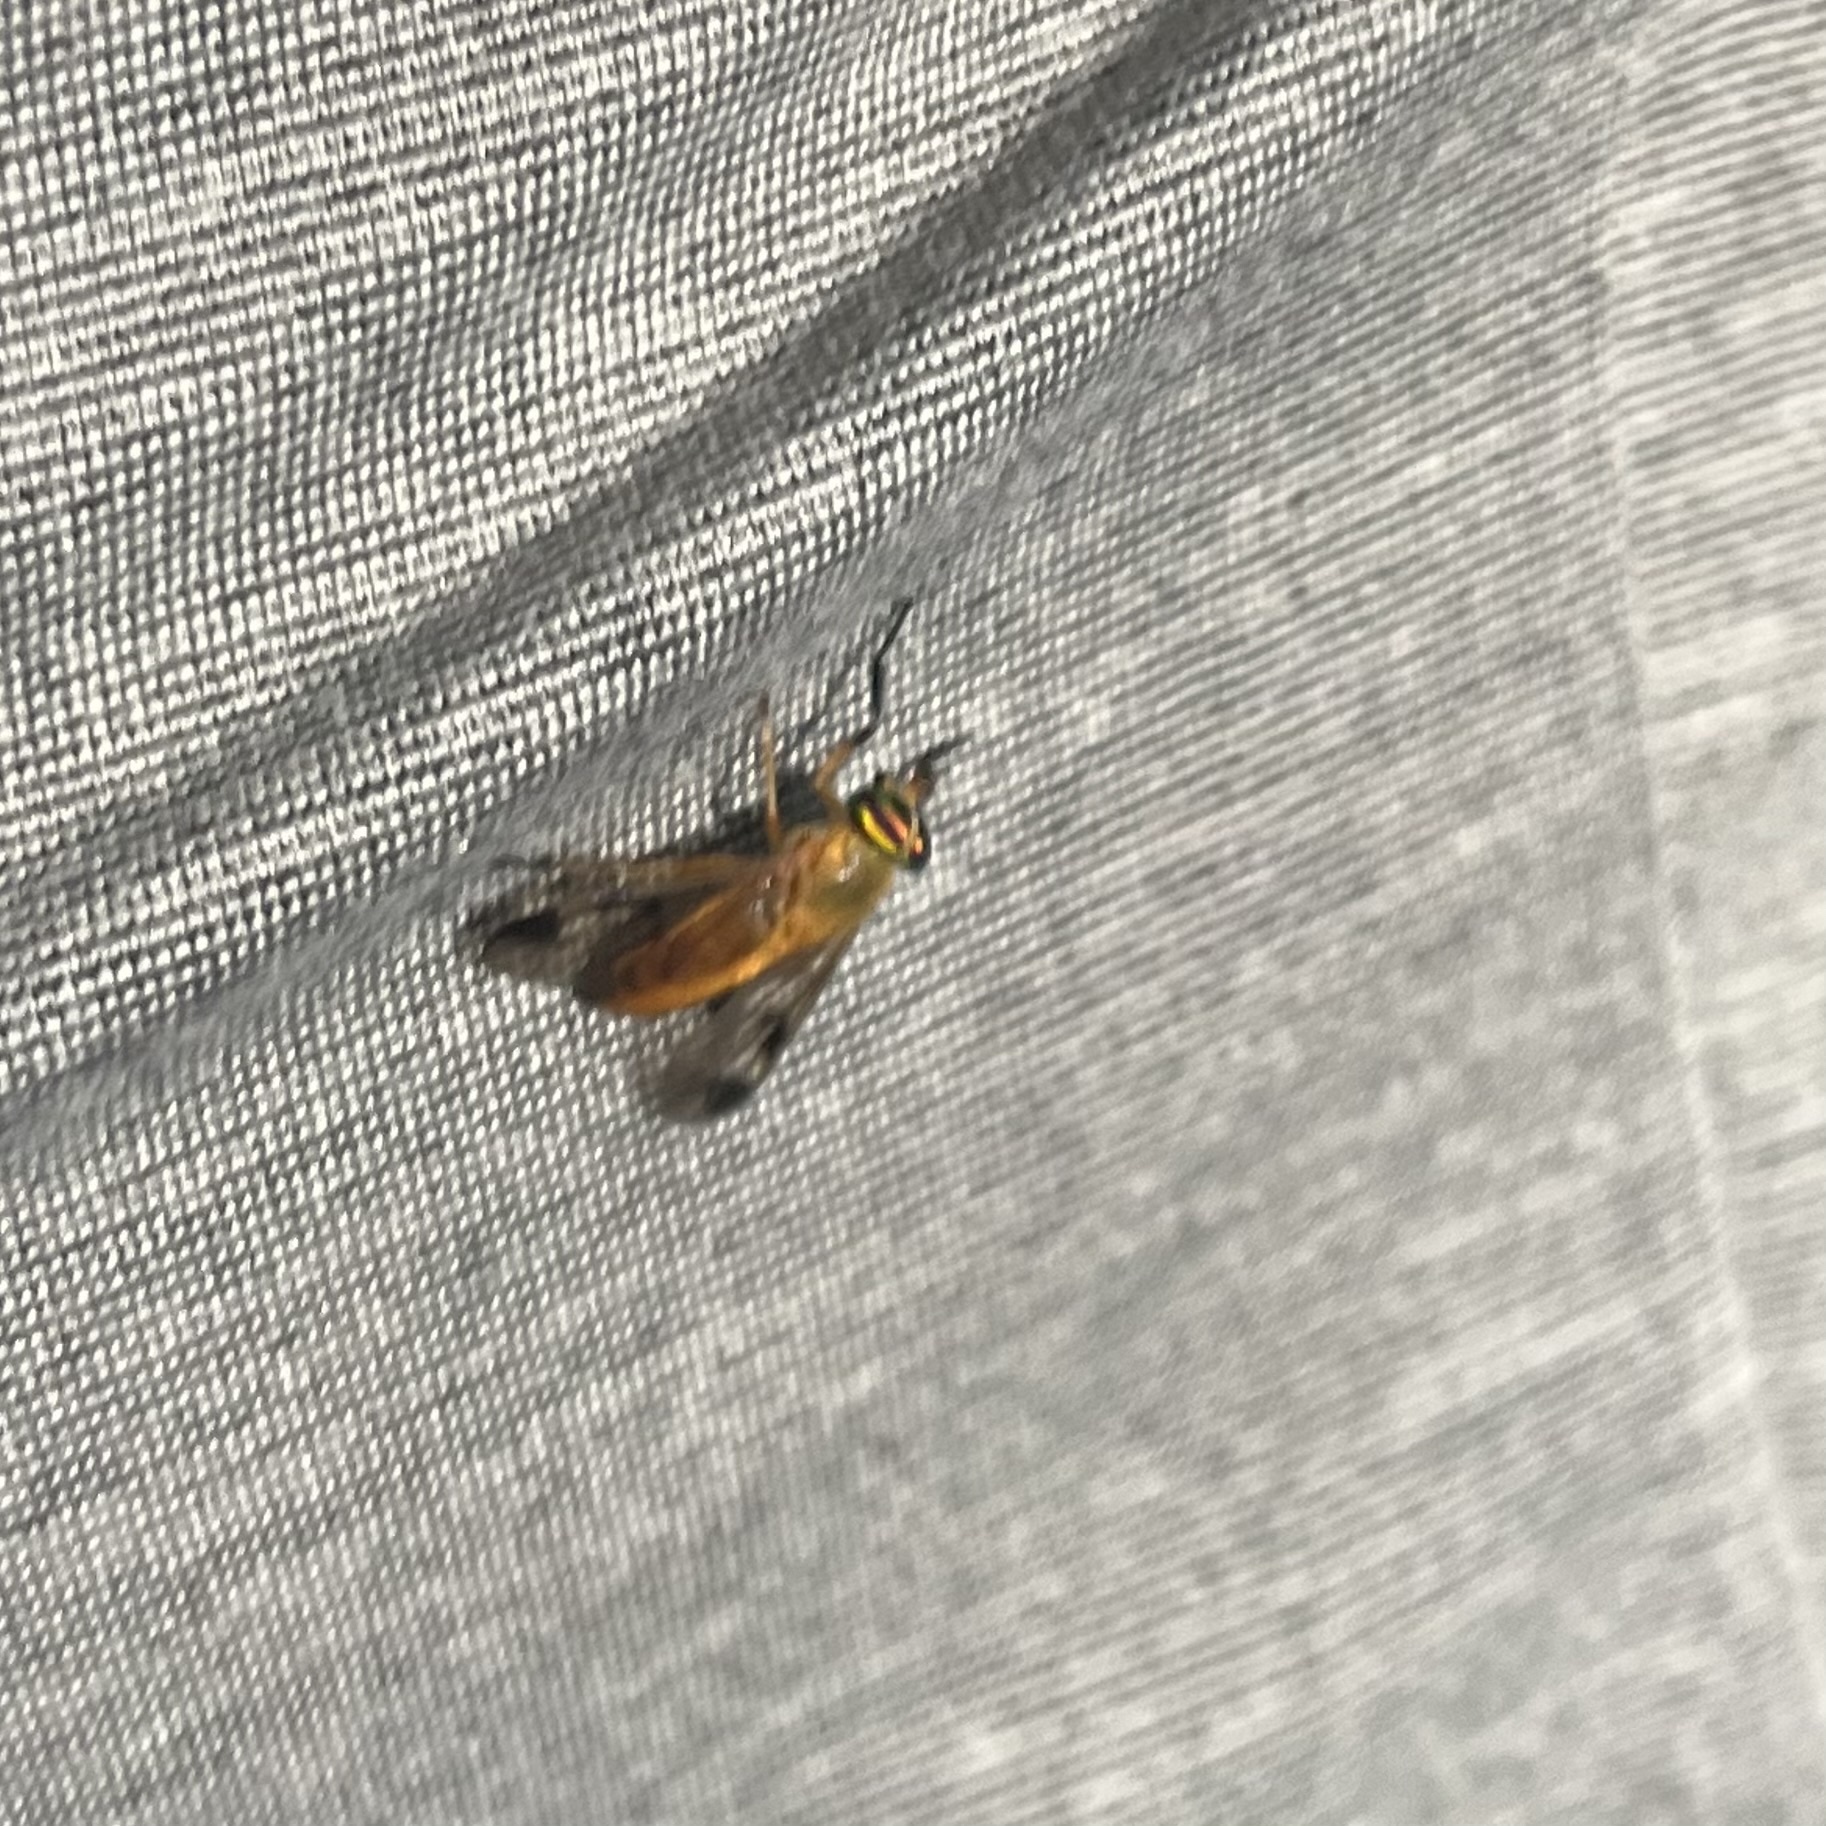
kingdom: Animalia
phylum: Arthropoda
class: Insecta
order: Diptera
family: Tabanidae
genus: Diachlorus
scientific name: Diachlorus ferrugatus
